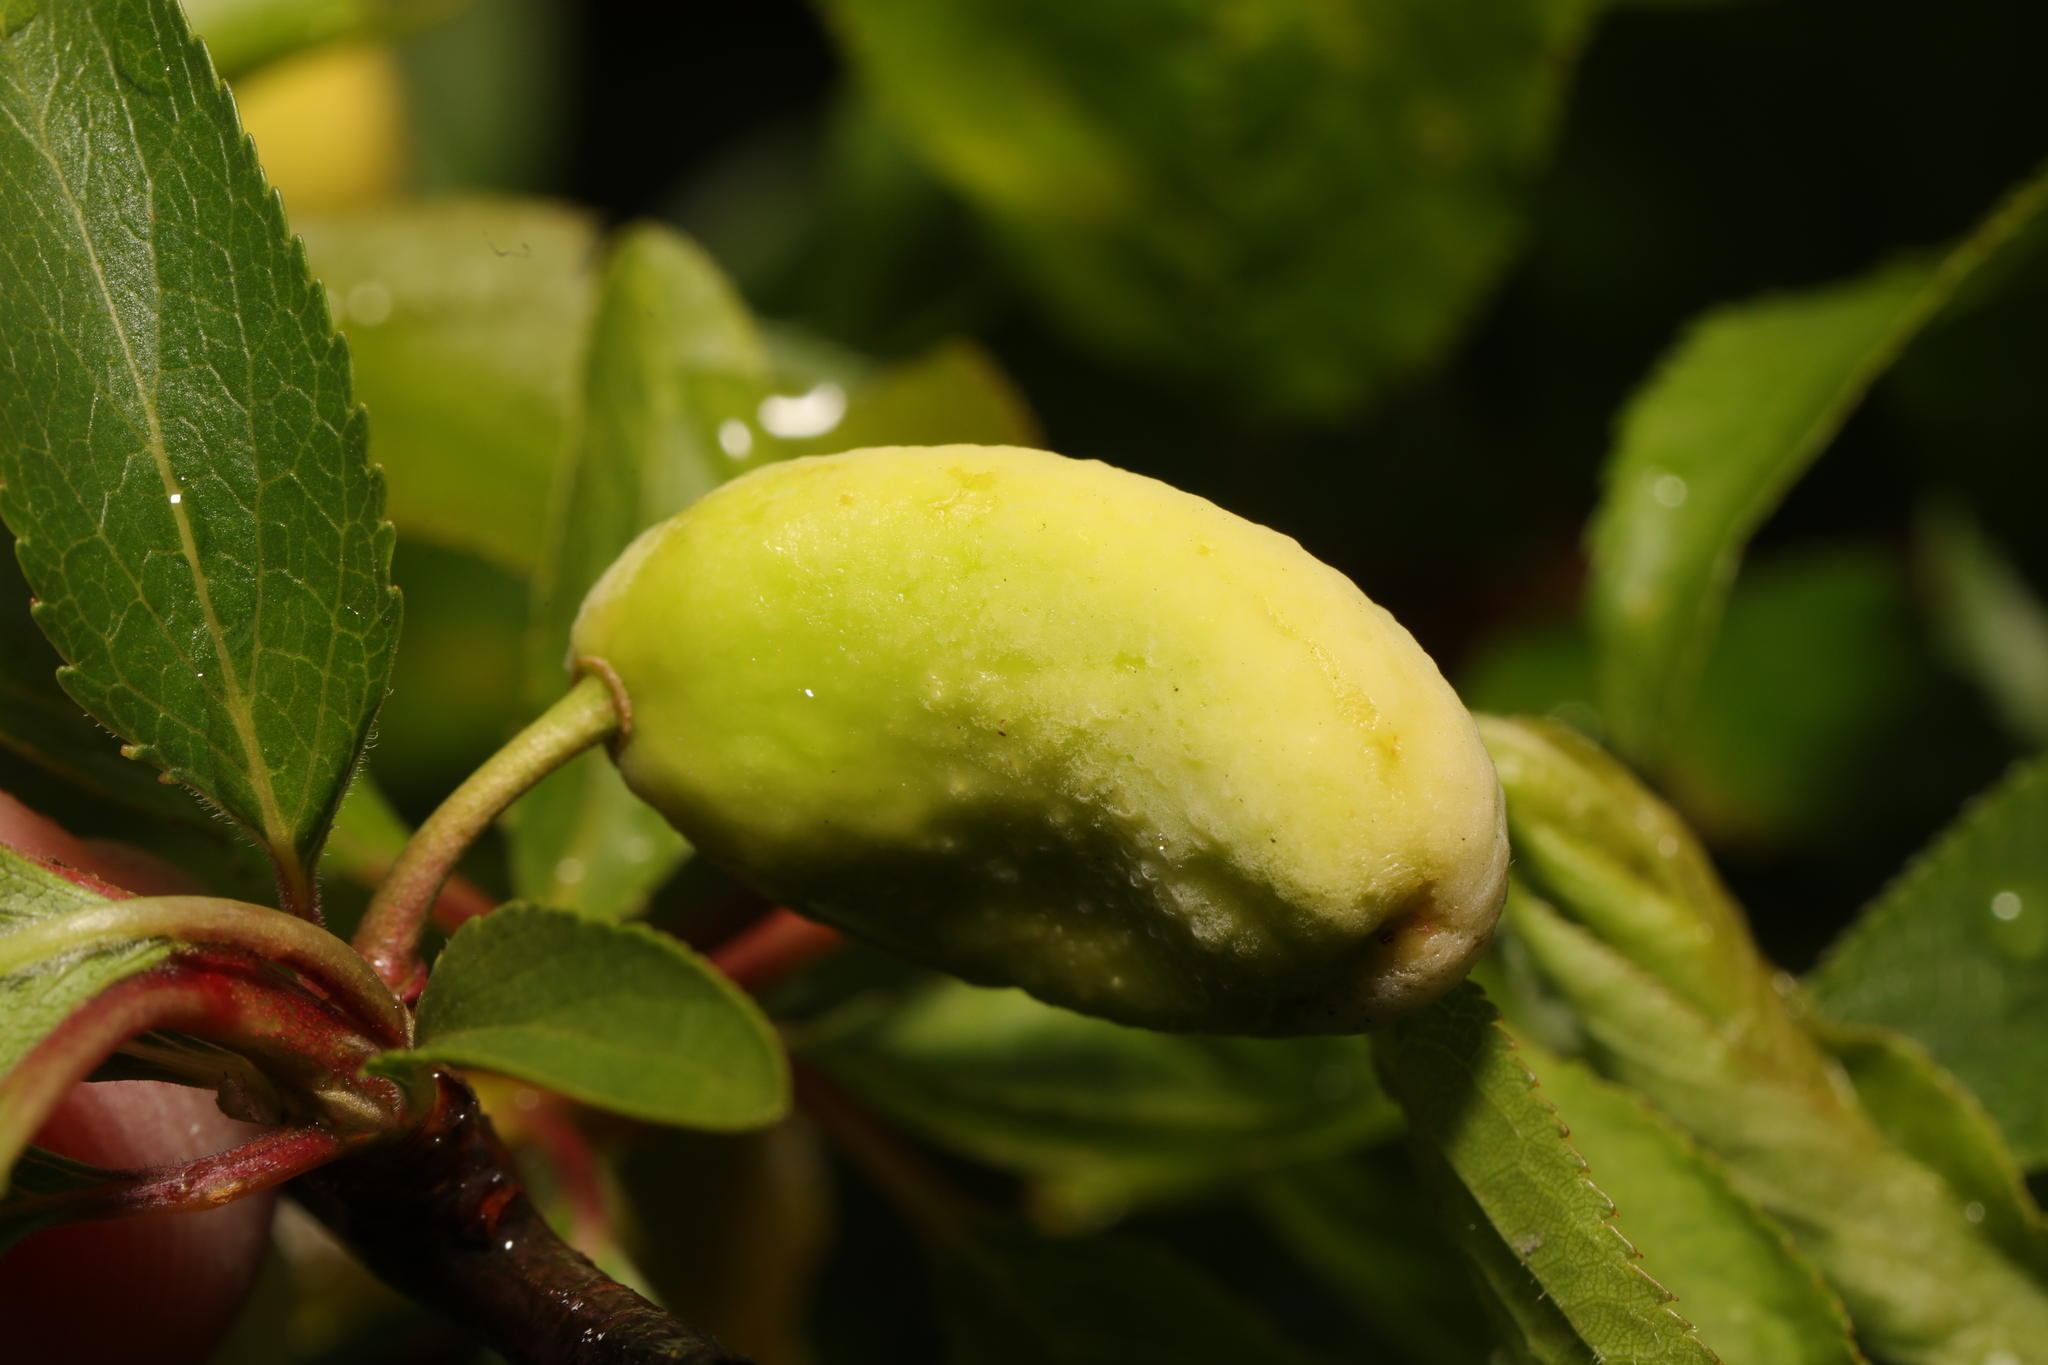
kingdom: Fungi
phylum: Ascomycota
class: Taphrinomycetes
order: Taphrinales
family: Taphrinaceae
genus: Taphrina
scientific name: Taphrina pruni
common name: Pocket plum
